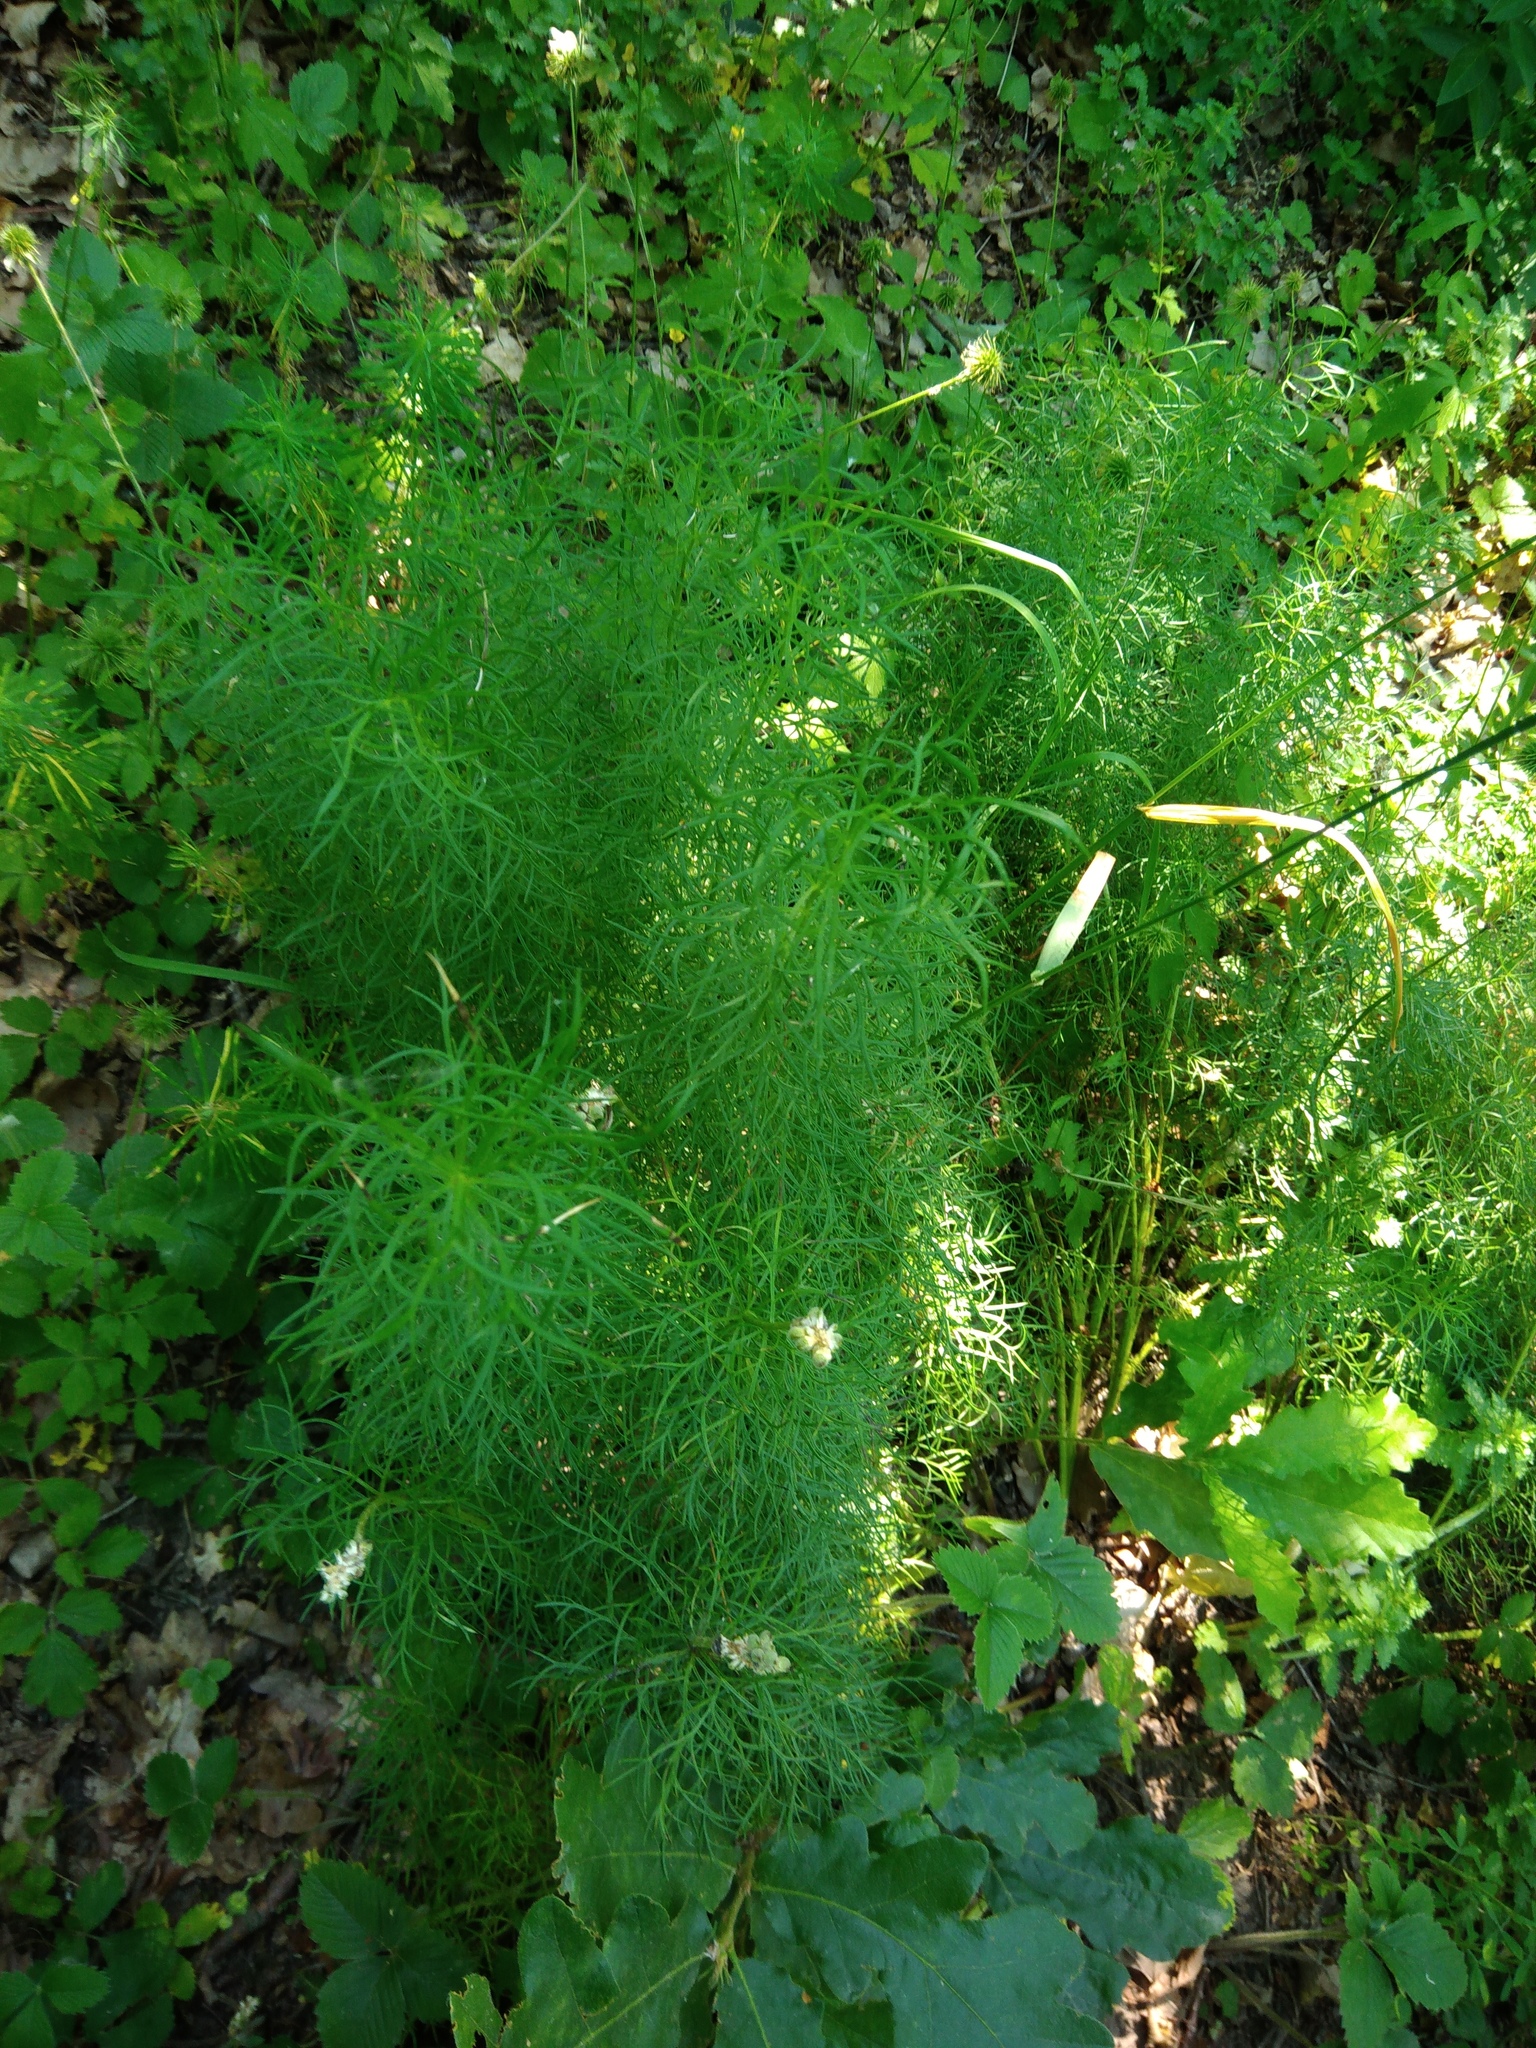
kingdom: Plantae
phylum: Tracheophyta
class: Magnoliopsida
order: Ranunculales
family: Ranunculaceae
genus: Adonis
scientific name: Adonis vernalis
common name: Yellow pheasants-eye
